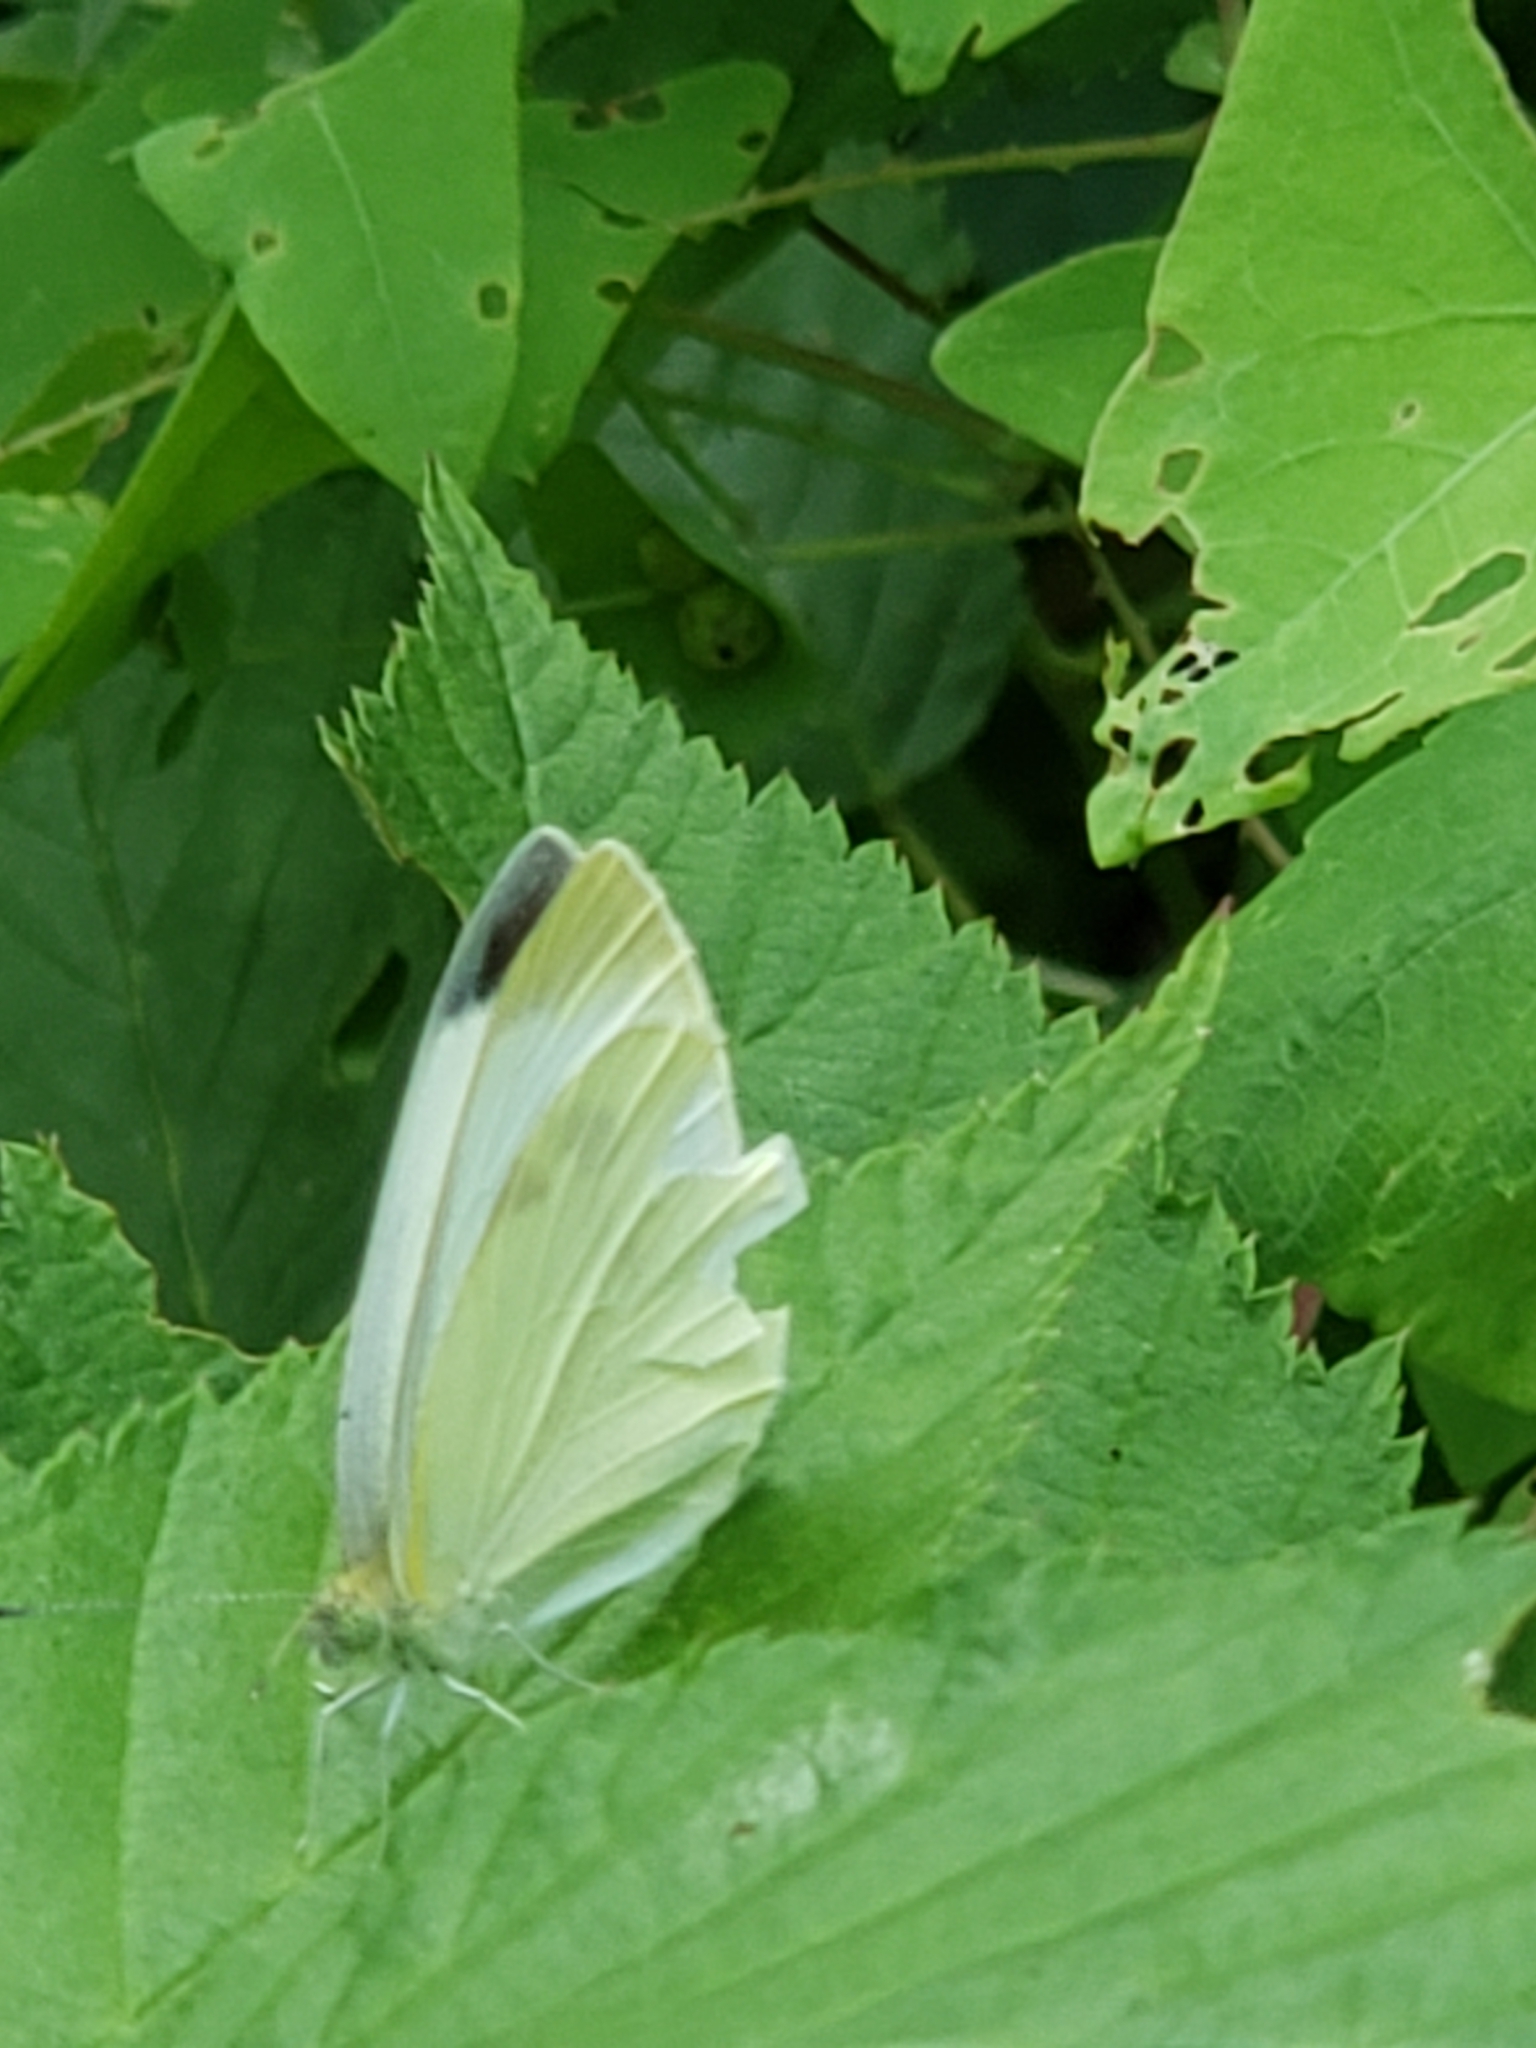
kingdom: Animalia
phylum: Arthropoda
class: Insecta
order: Lepidoptera
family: Pieridae
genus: Pieris
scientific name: Pieris rapae
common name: Small white
